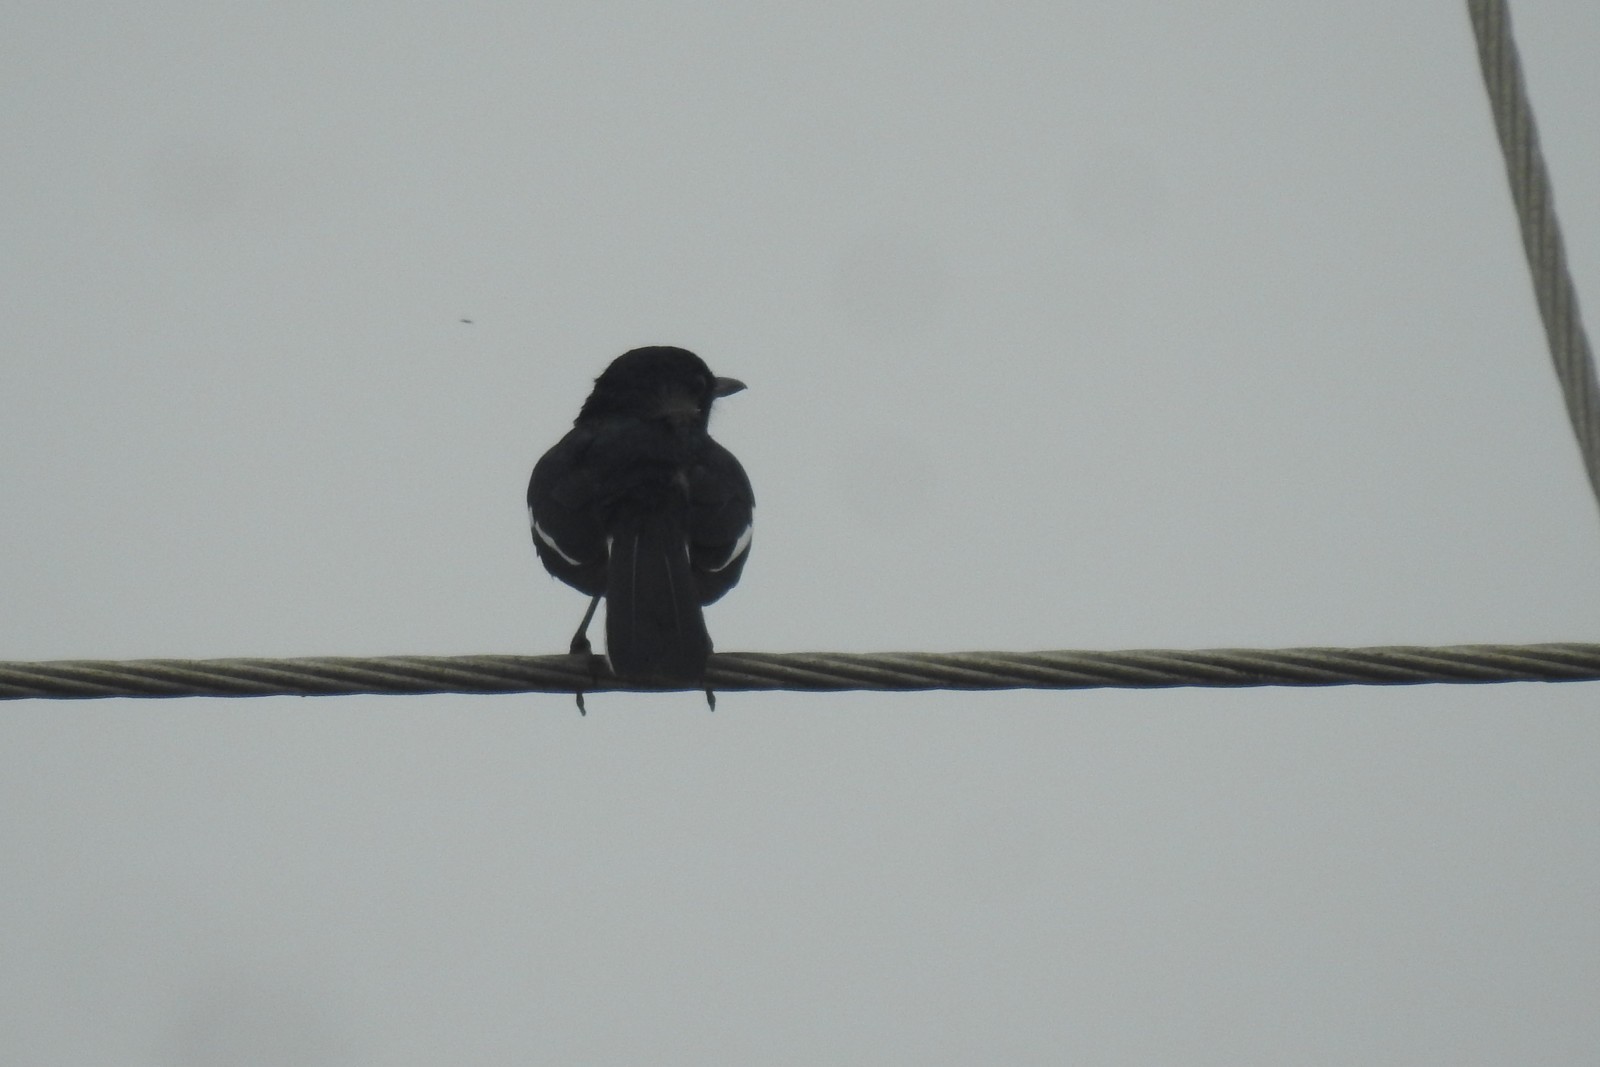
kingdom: Animalia
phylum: Chordata
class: Aves
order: Passeriformes
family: Muscicapidae
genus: Saxicola
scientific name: Saxicola caprata
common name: Pied bush chat
